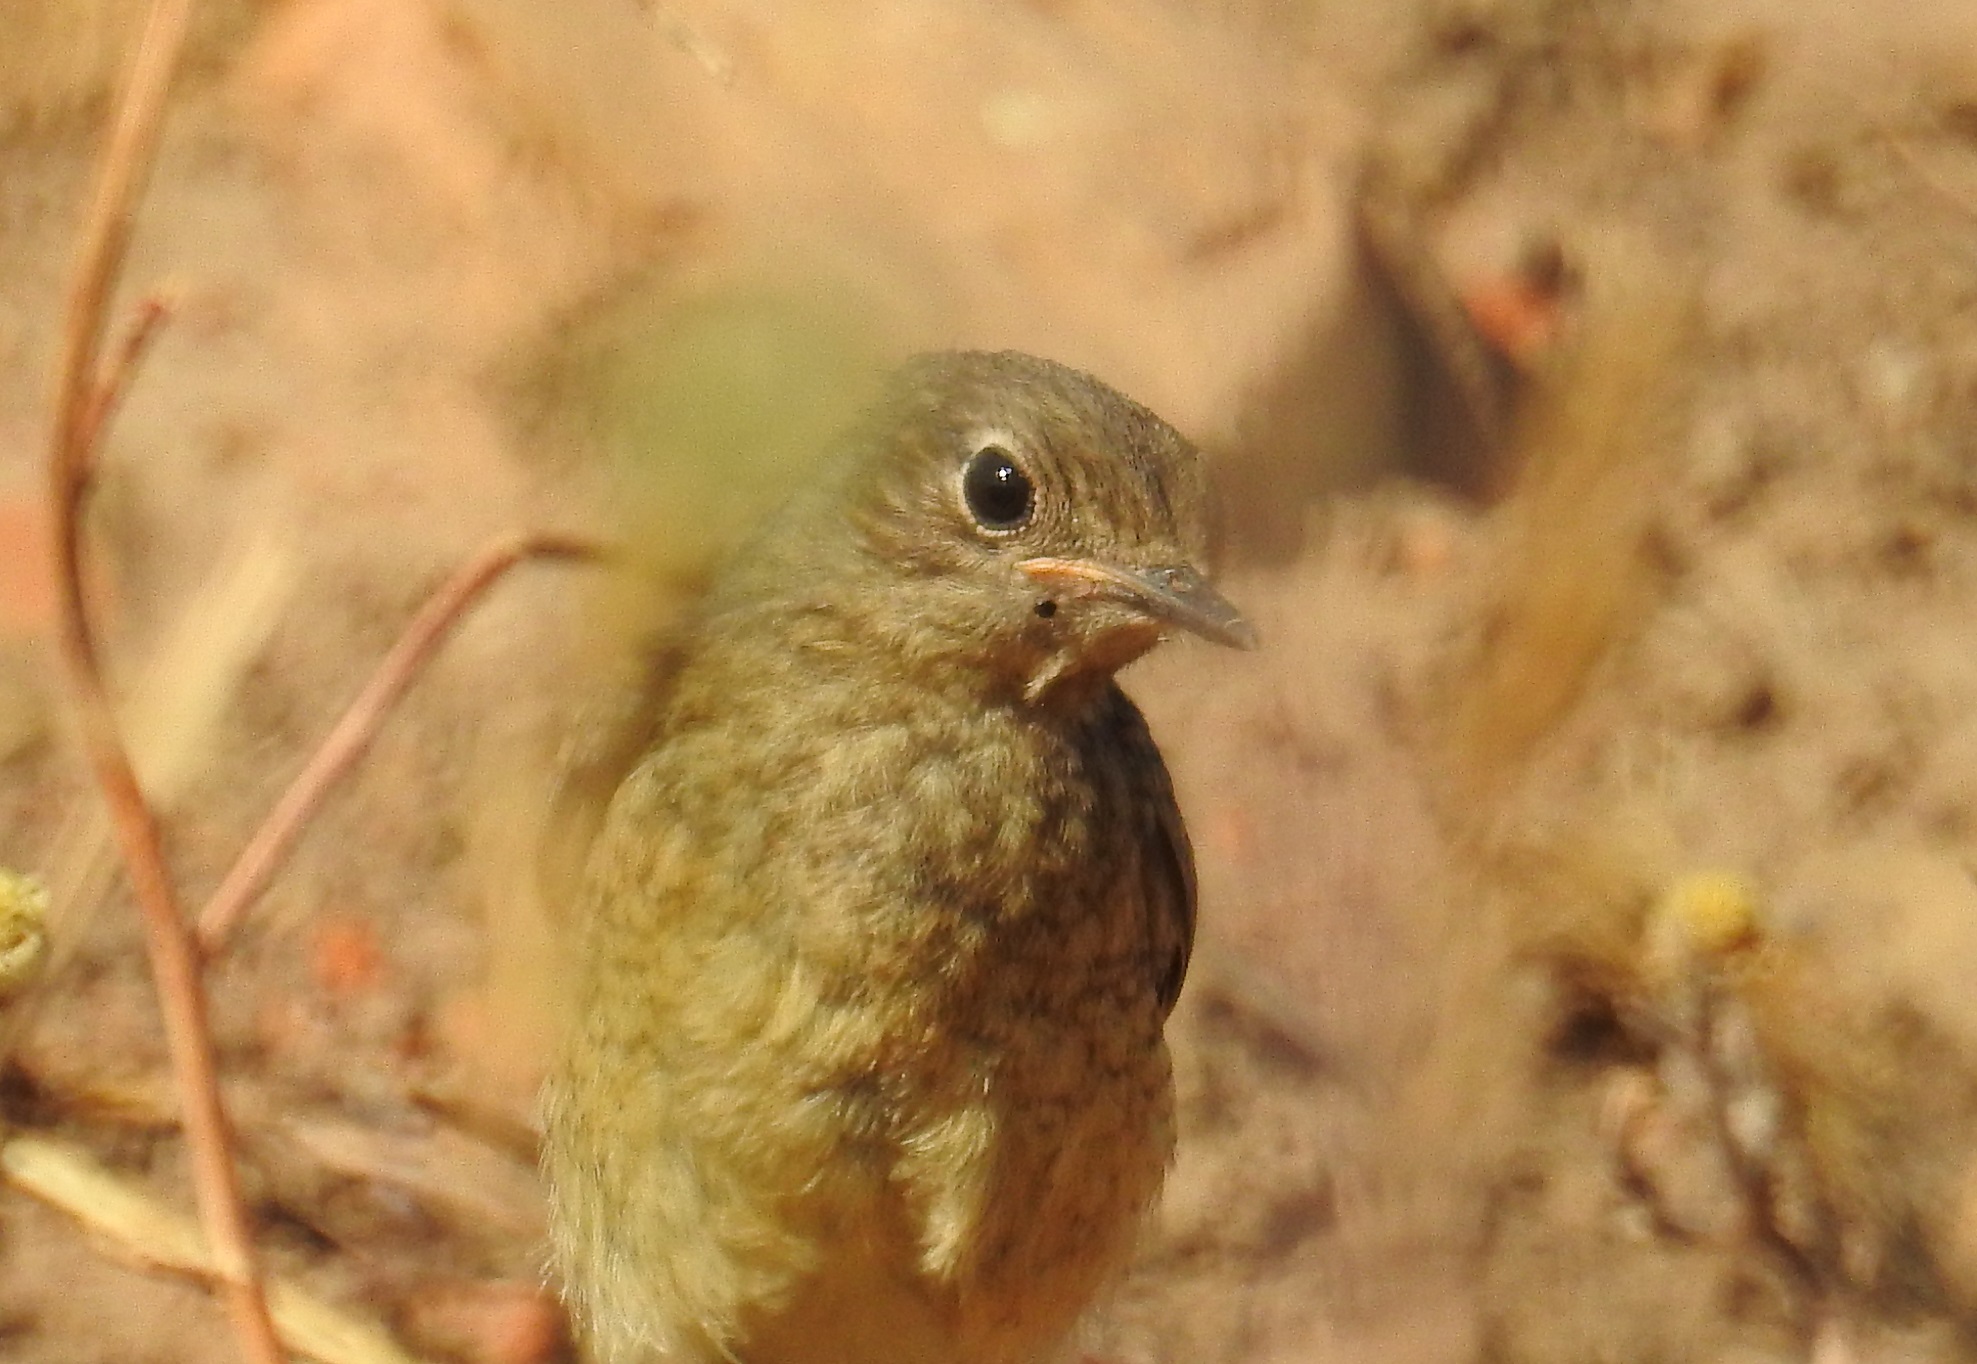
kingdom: Animalia
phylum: Chordata
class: Aves
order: Passeriformes
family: Muscicapidae
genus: Phoenicurus
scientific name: Phoenicurus moussieri
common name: Moussier's redstart
